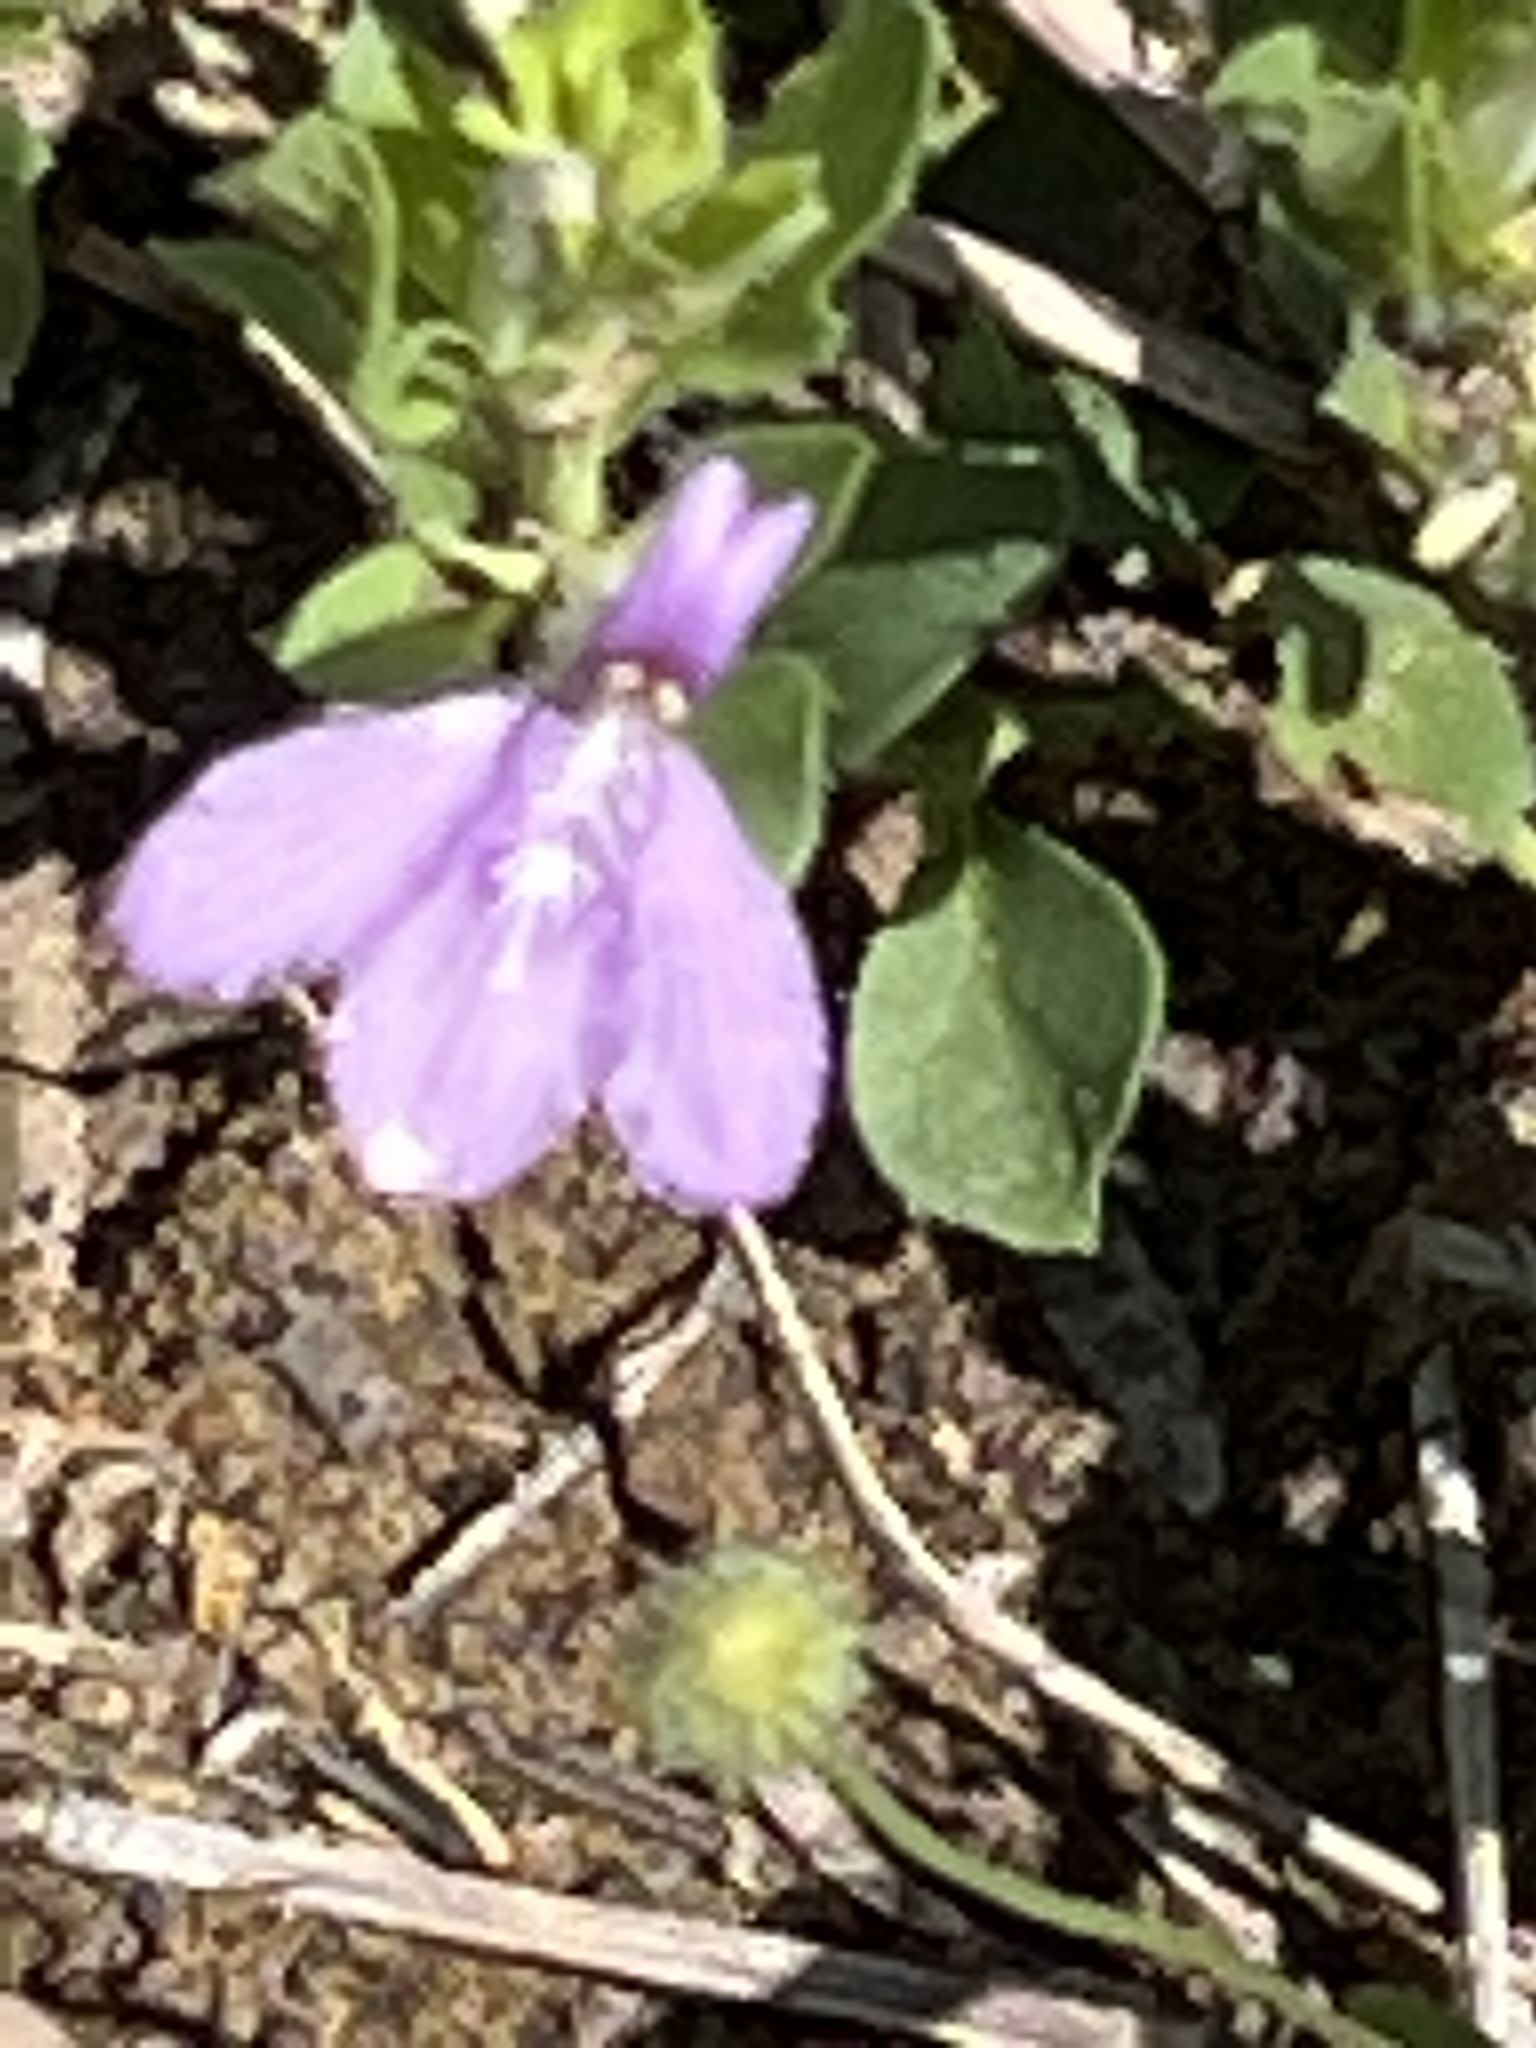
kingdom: Plantae
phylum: Tracheophyta
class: Magnoliopsida
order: Lamiales
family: Acanthaceae
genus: Justicia
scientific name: Justicia pilosella
